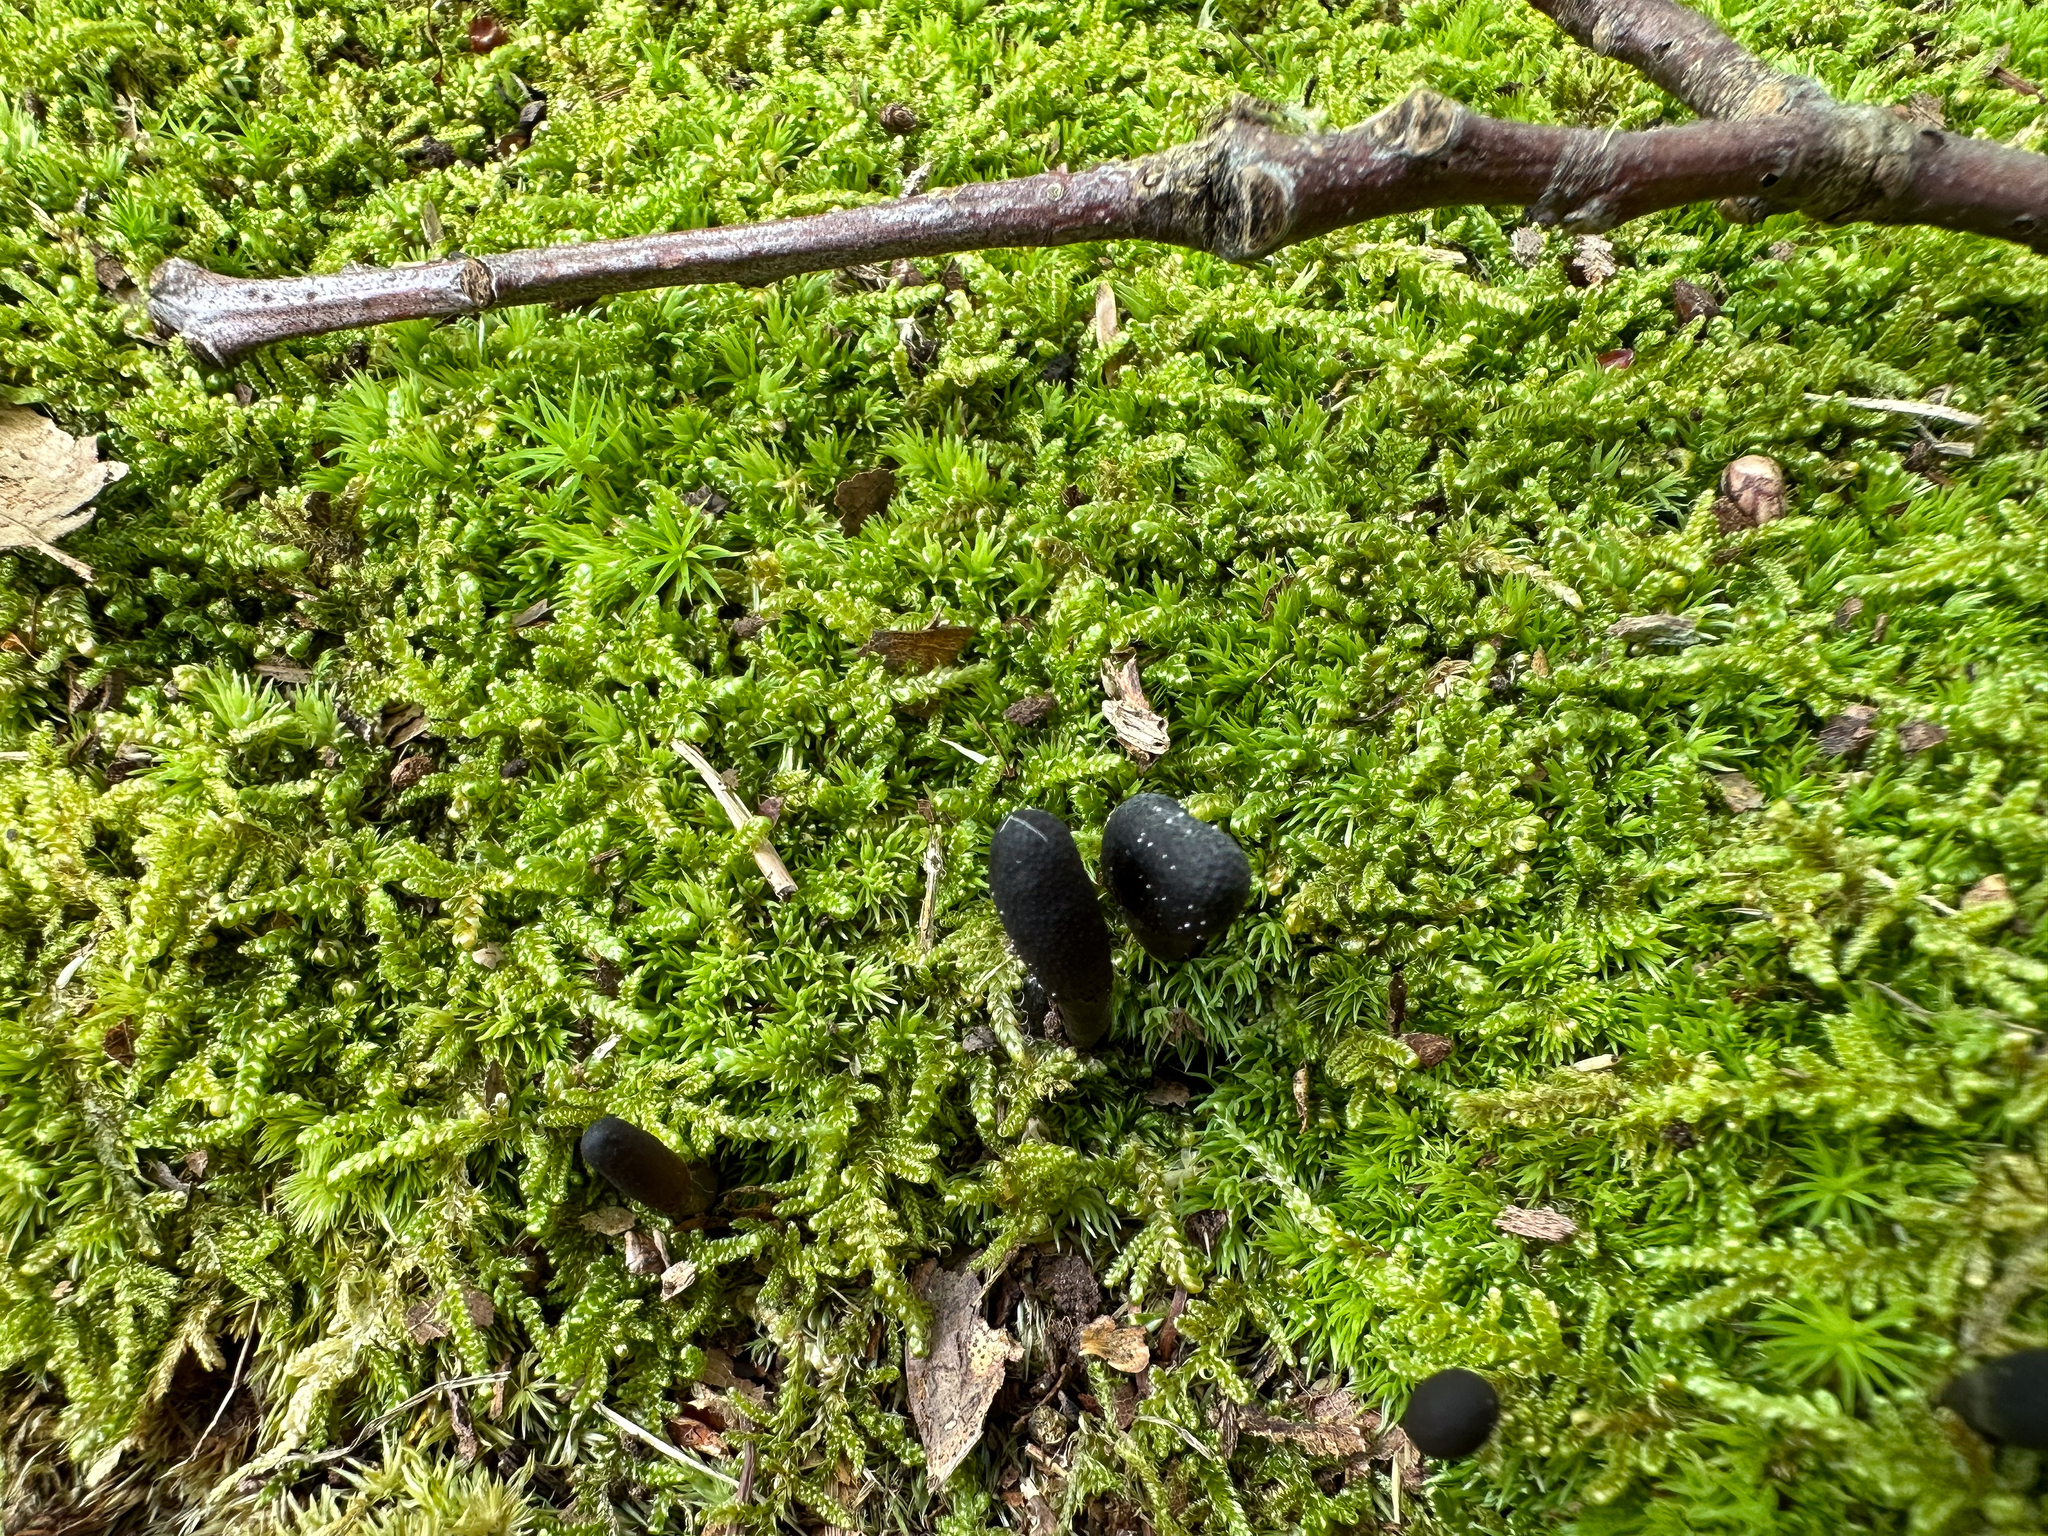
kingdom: Fungi
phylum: Ascomycota
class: Sordariomycetes
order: Hypocreales
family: Ophiocordycipitaceae
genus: Tolypocladium
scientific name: Tolypocladium ophioglossoides
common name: Snaketongue truffleclub
